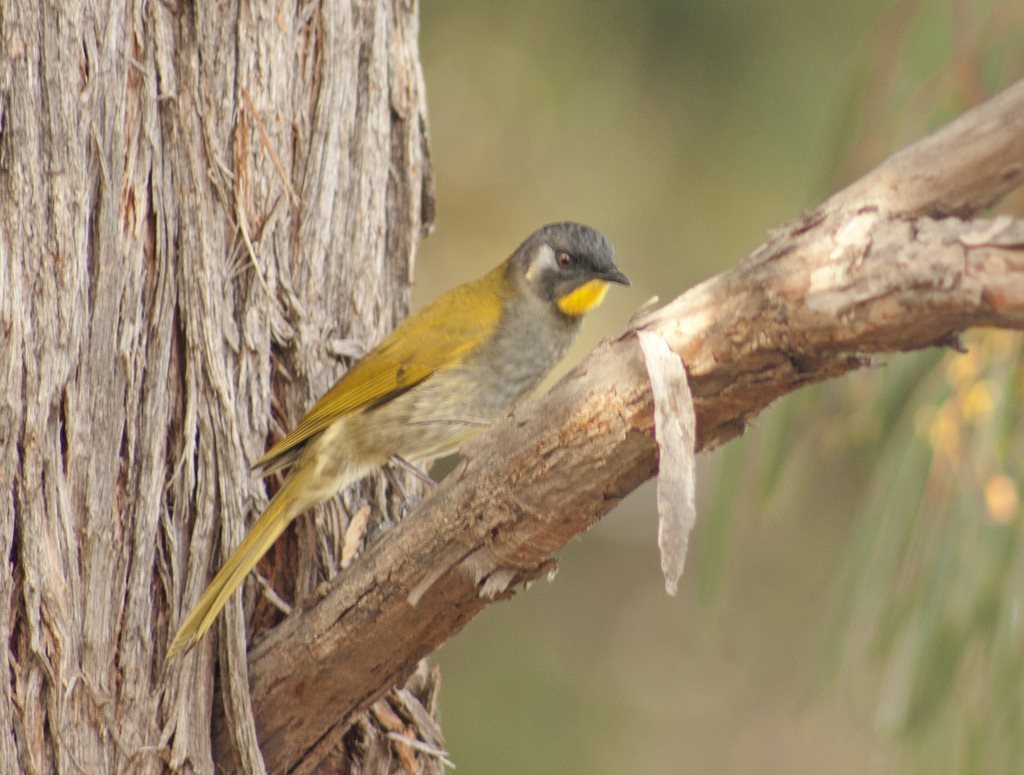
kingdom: Animalia
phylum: Chordata
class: Aves
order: Passeriformes
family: Meliphagidae
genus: Nesoptilotis
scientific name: Nesoptilotis flavicollis
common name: Yellow-throated honeyeater
